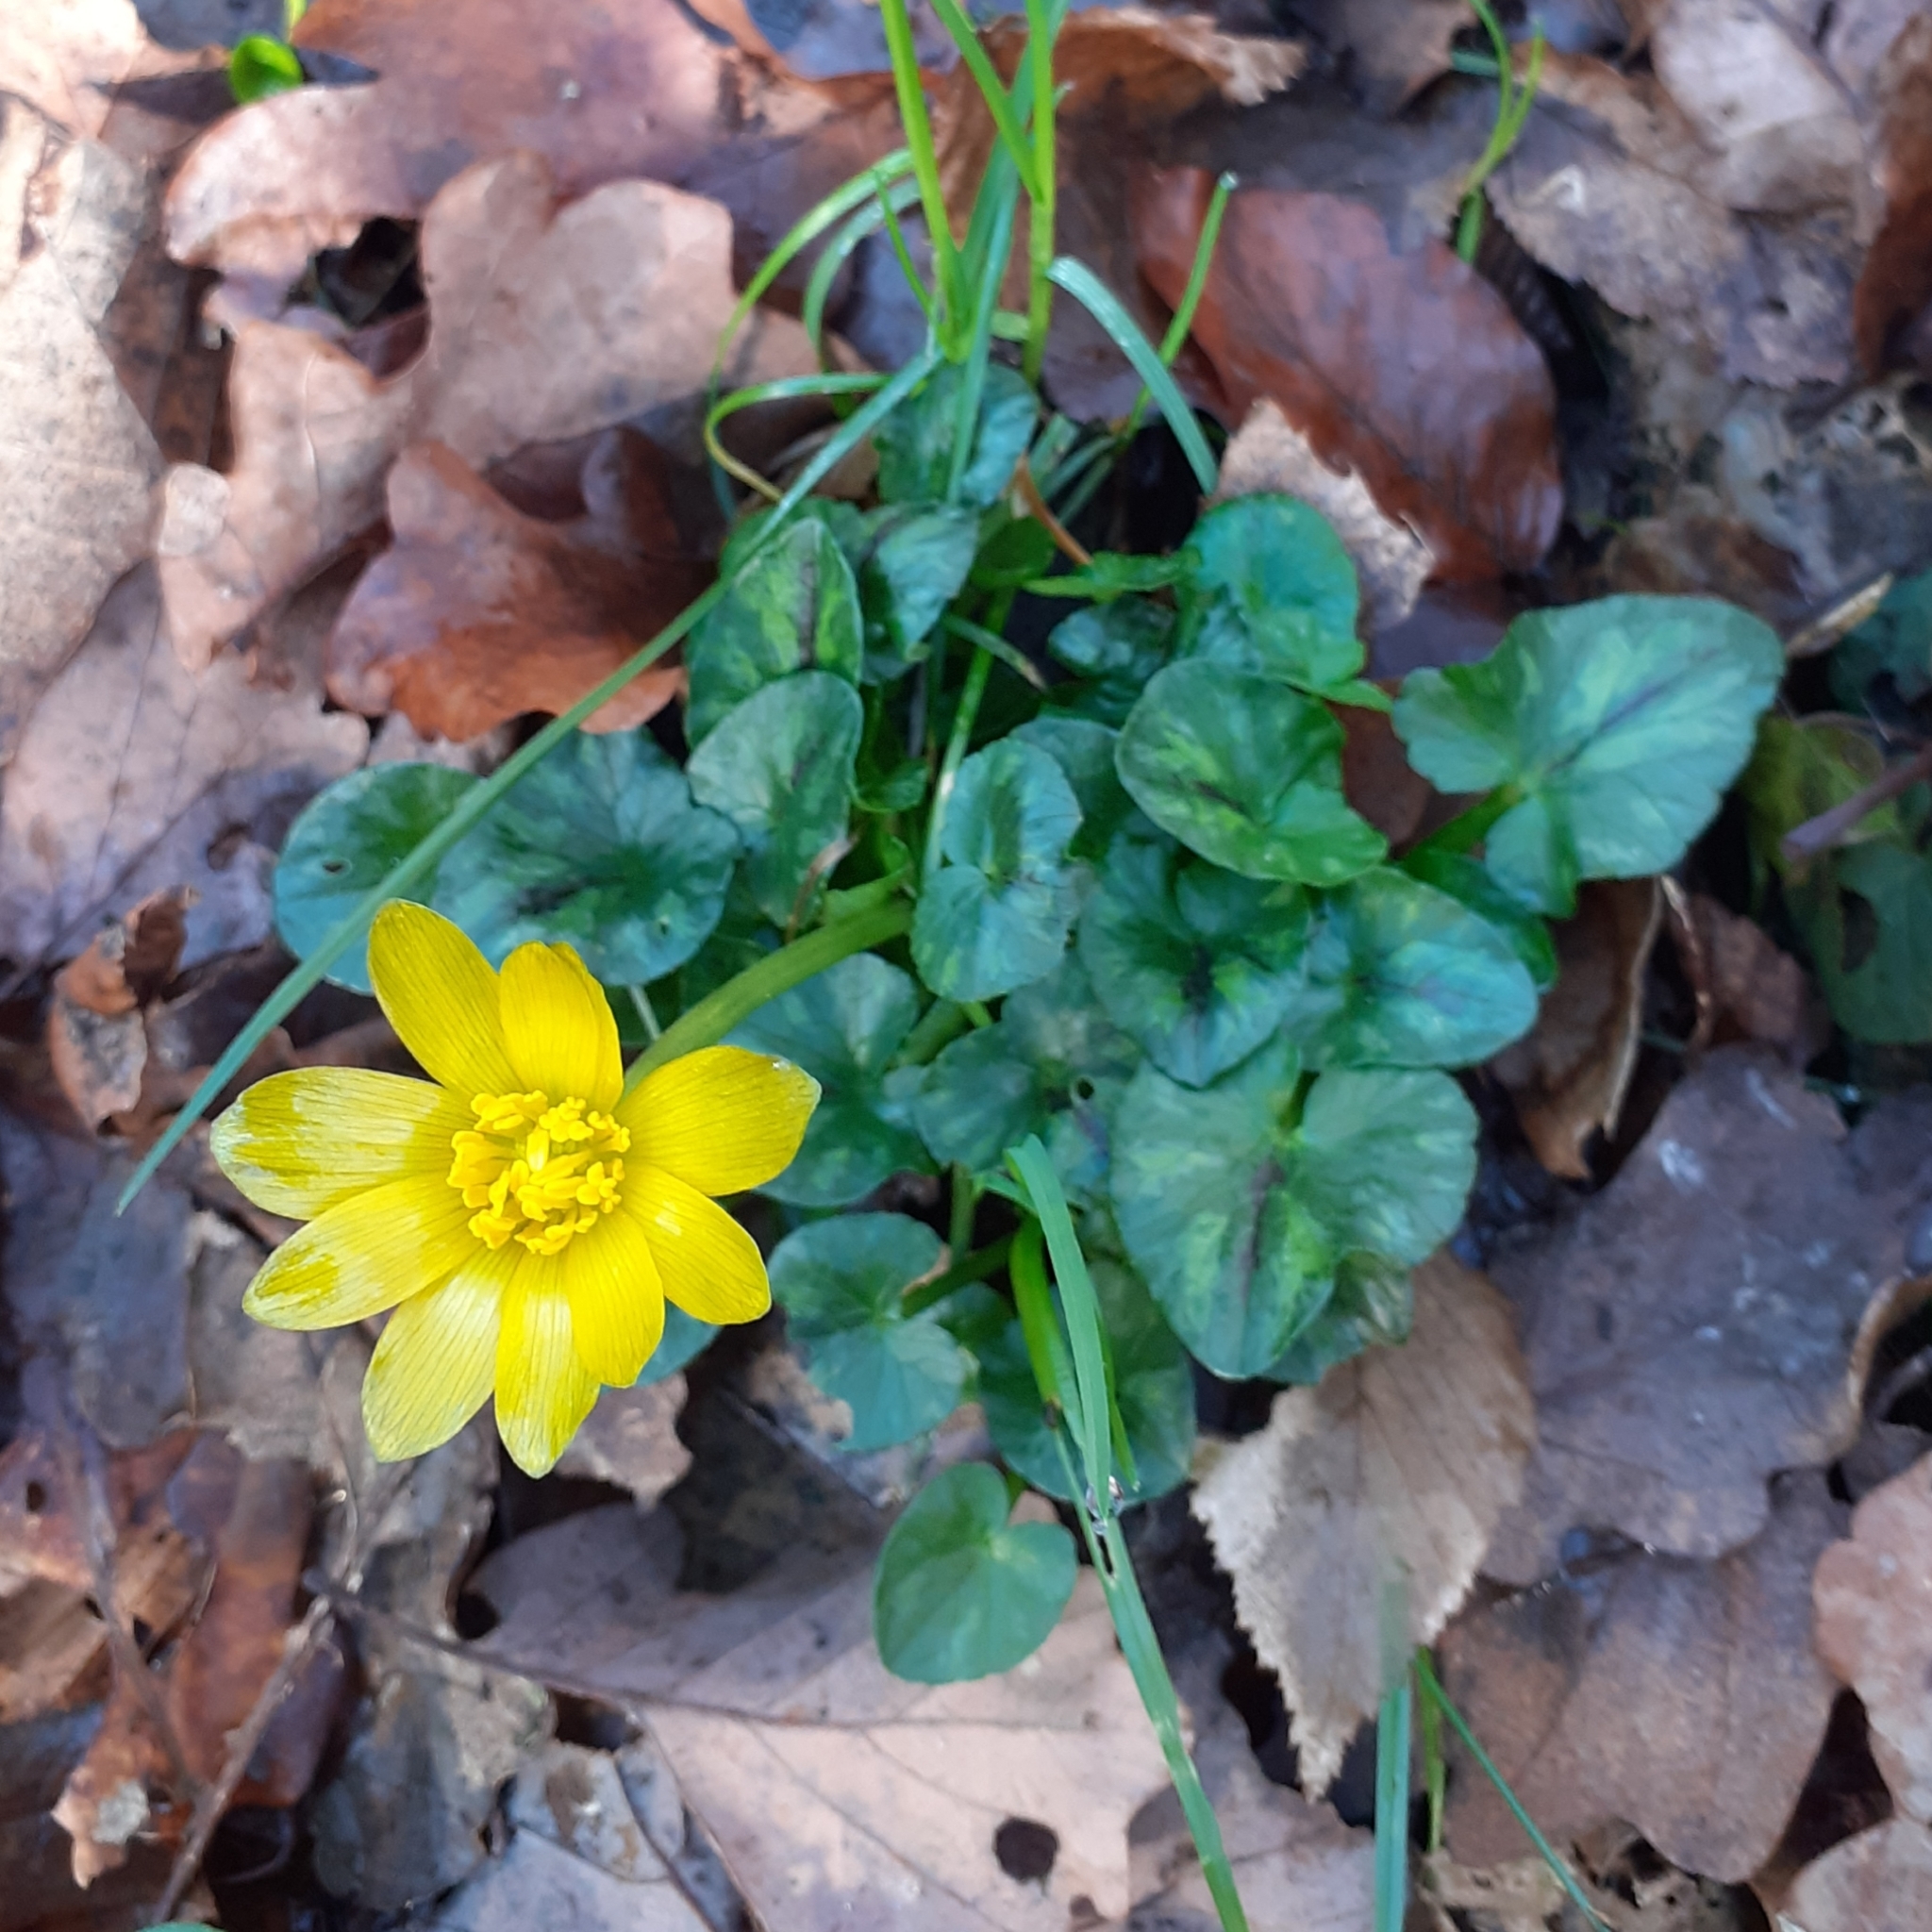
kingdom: Plantae
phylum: Tracheophyta
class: Magnoliopsida
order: Ranunculales
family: Ranunculaceae
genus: Ficaria
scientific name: Ficaria verna
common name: Lesser celandine
